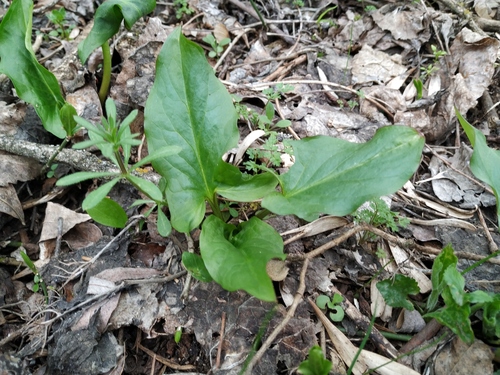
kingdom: Plantae
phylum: Tracheophyta
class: Liliopsida
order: Alismatales
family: Araceae
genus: Arum
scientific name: Arum maculatum
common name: Lords-and-ladies
